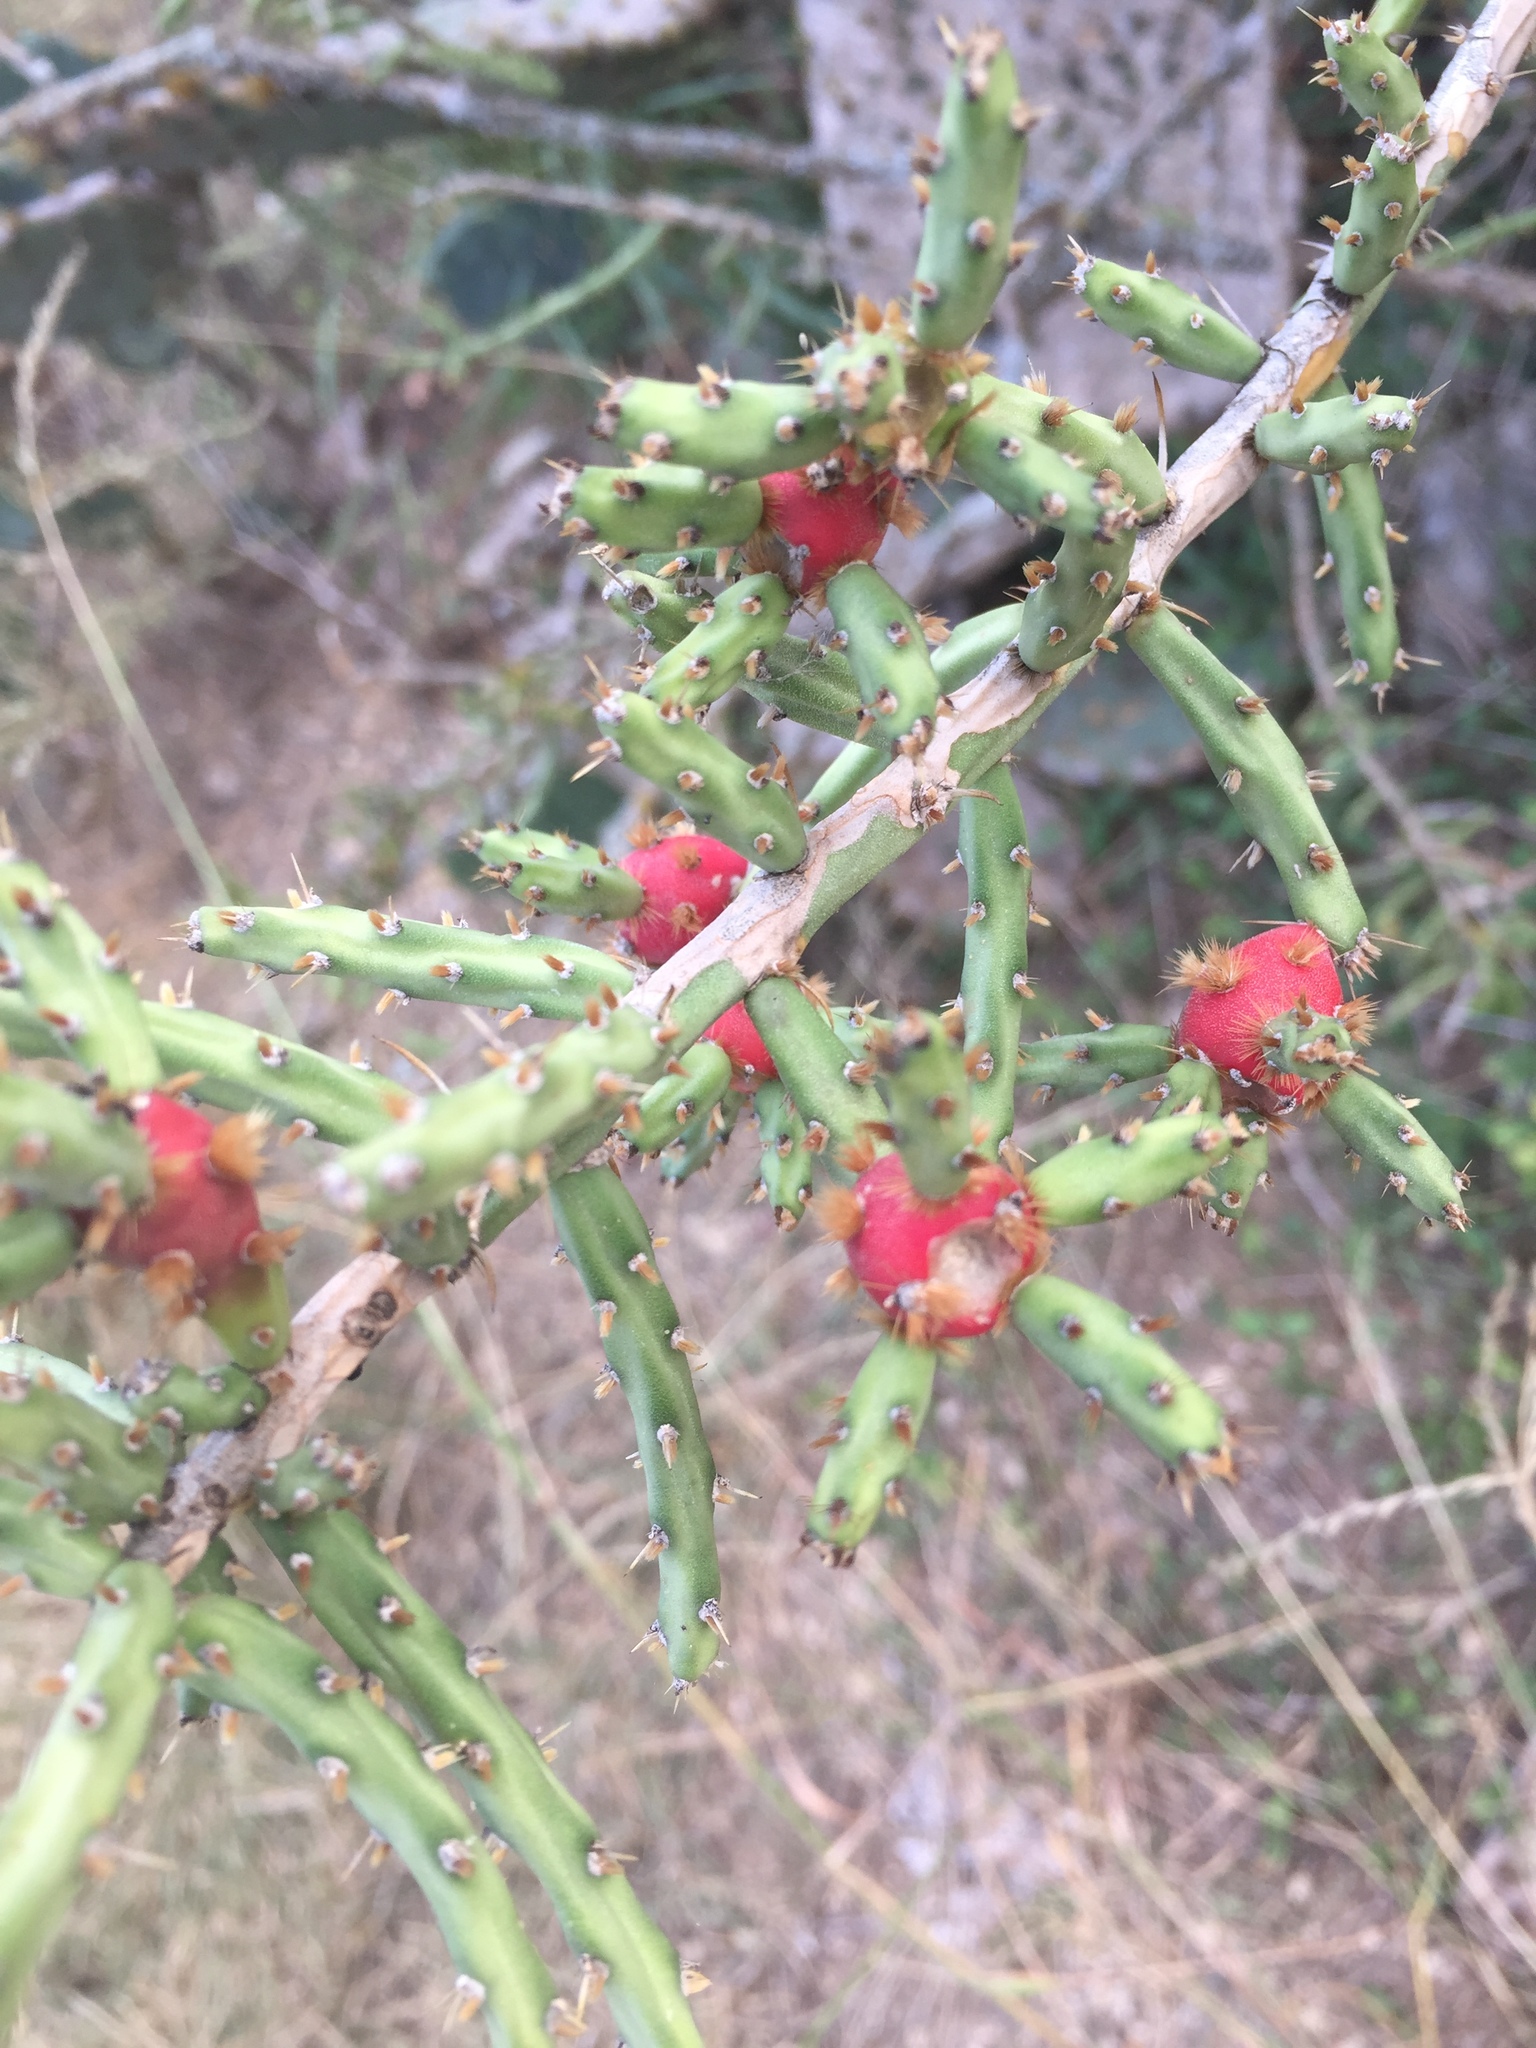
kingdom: Plantae
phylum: Tracheophyta
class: Magnoliopsida
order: Caryophyllales
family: Cactaceae
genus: Cylindropuntia
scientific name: Cylindropuntia leptocaulis
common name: Christmas cactus
